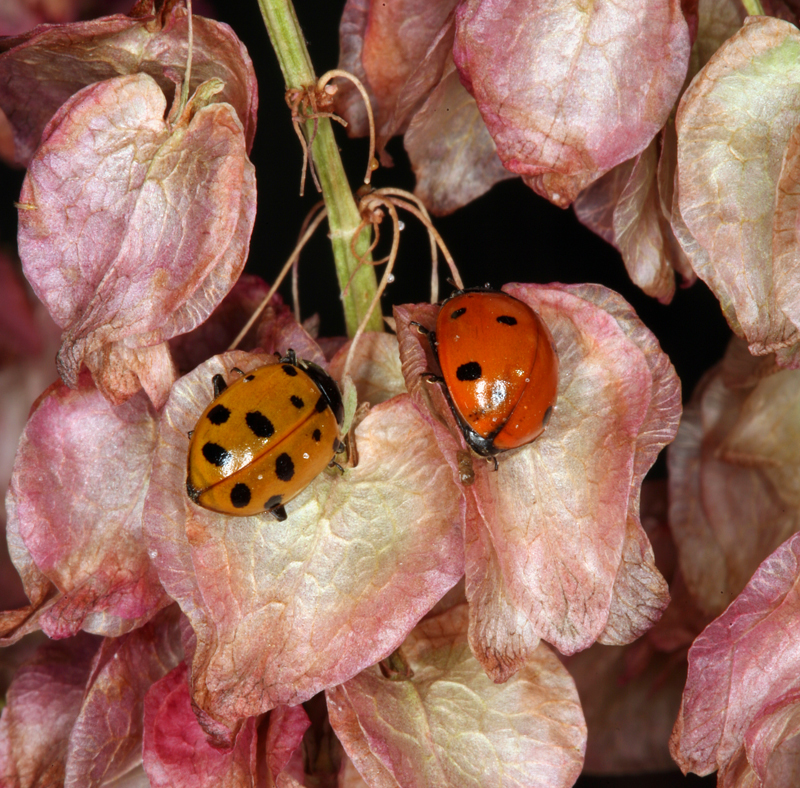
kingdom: Plantae
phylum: Tracheophyta
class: Magnoliopsida
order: Caryophyllales
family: Polygonaceae
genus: Rumex
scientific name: Rumex hymenosepalus
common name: Ganagra
